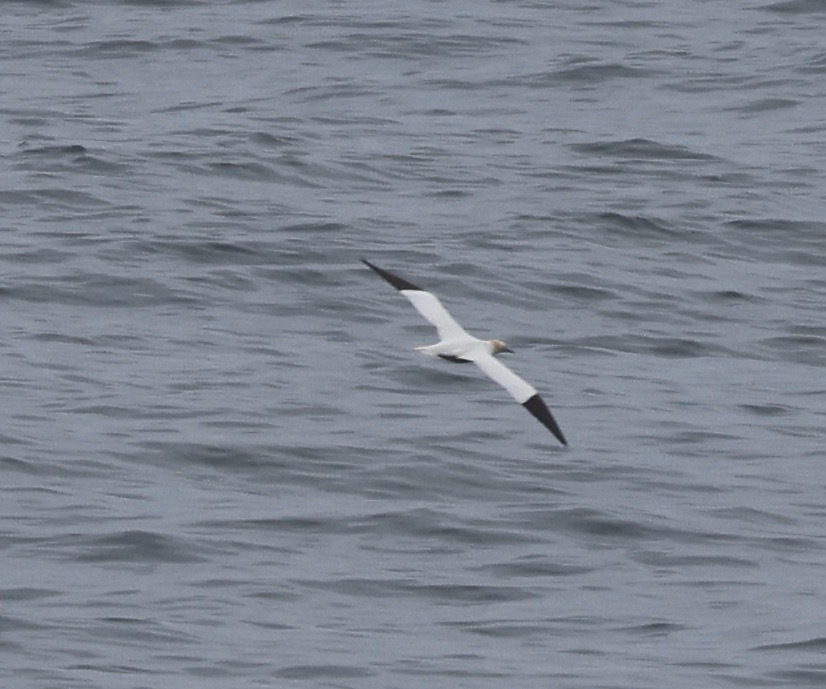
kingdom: Animalia
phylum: Chordata
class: Aves
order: Suliformes
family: Sulidae
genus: Morus
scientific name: Morus bassanus
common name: Northern gannet
